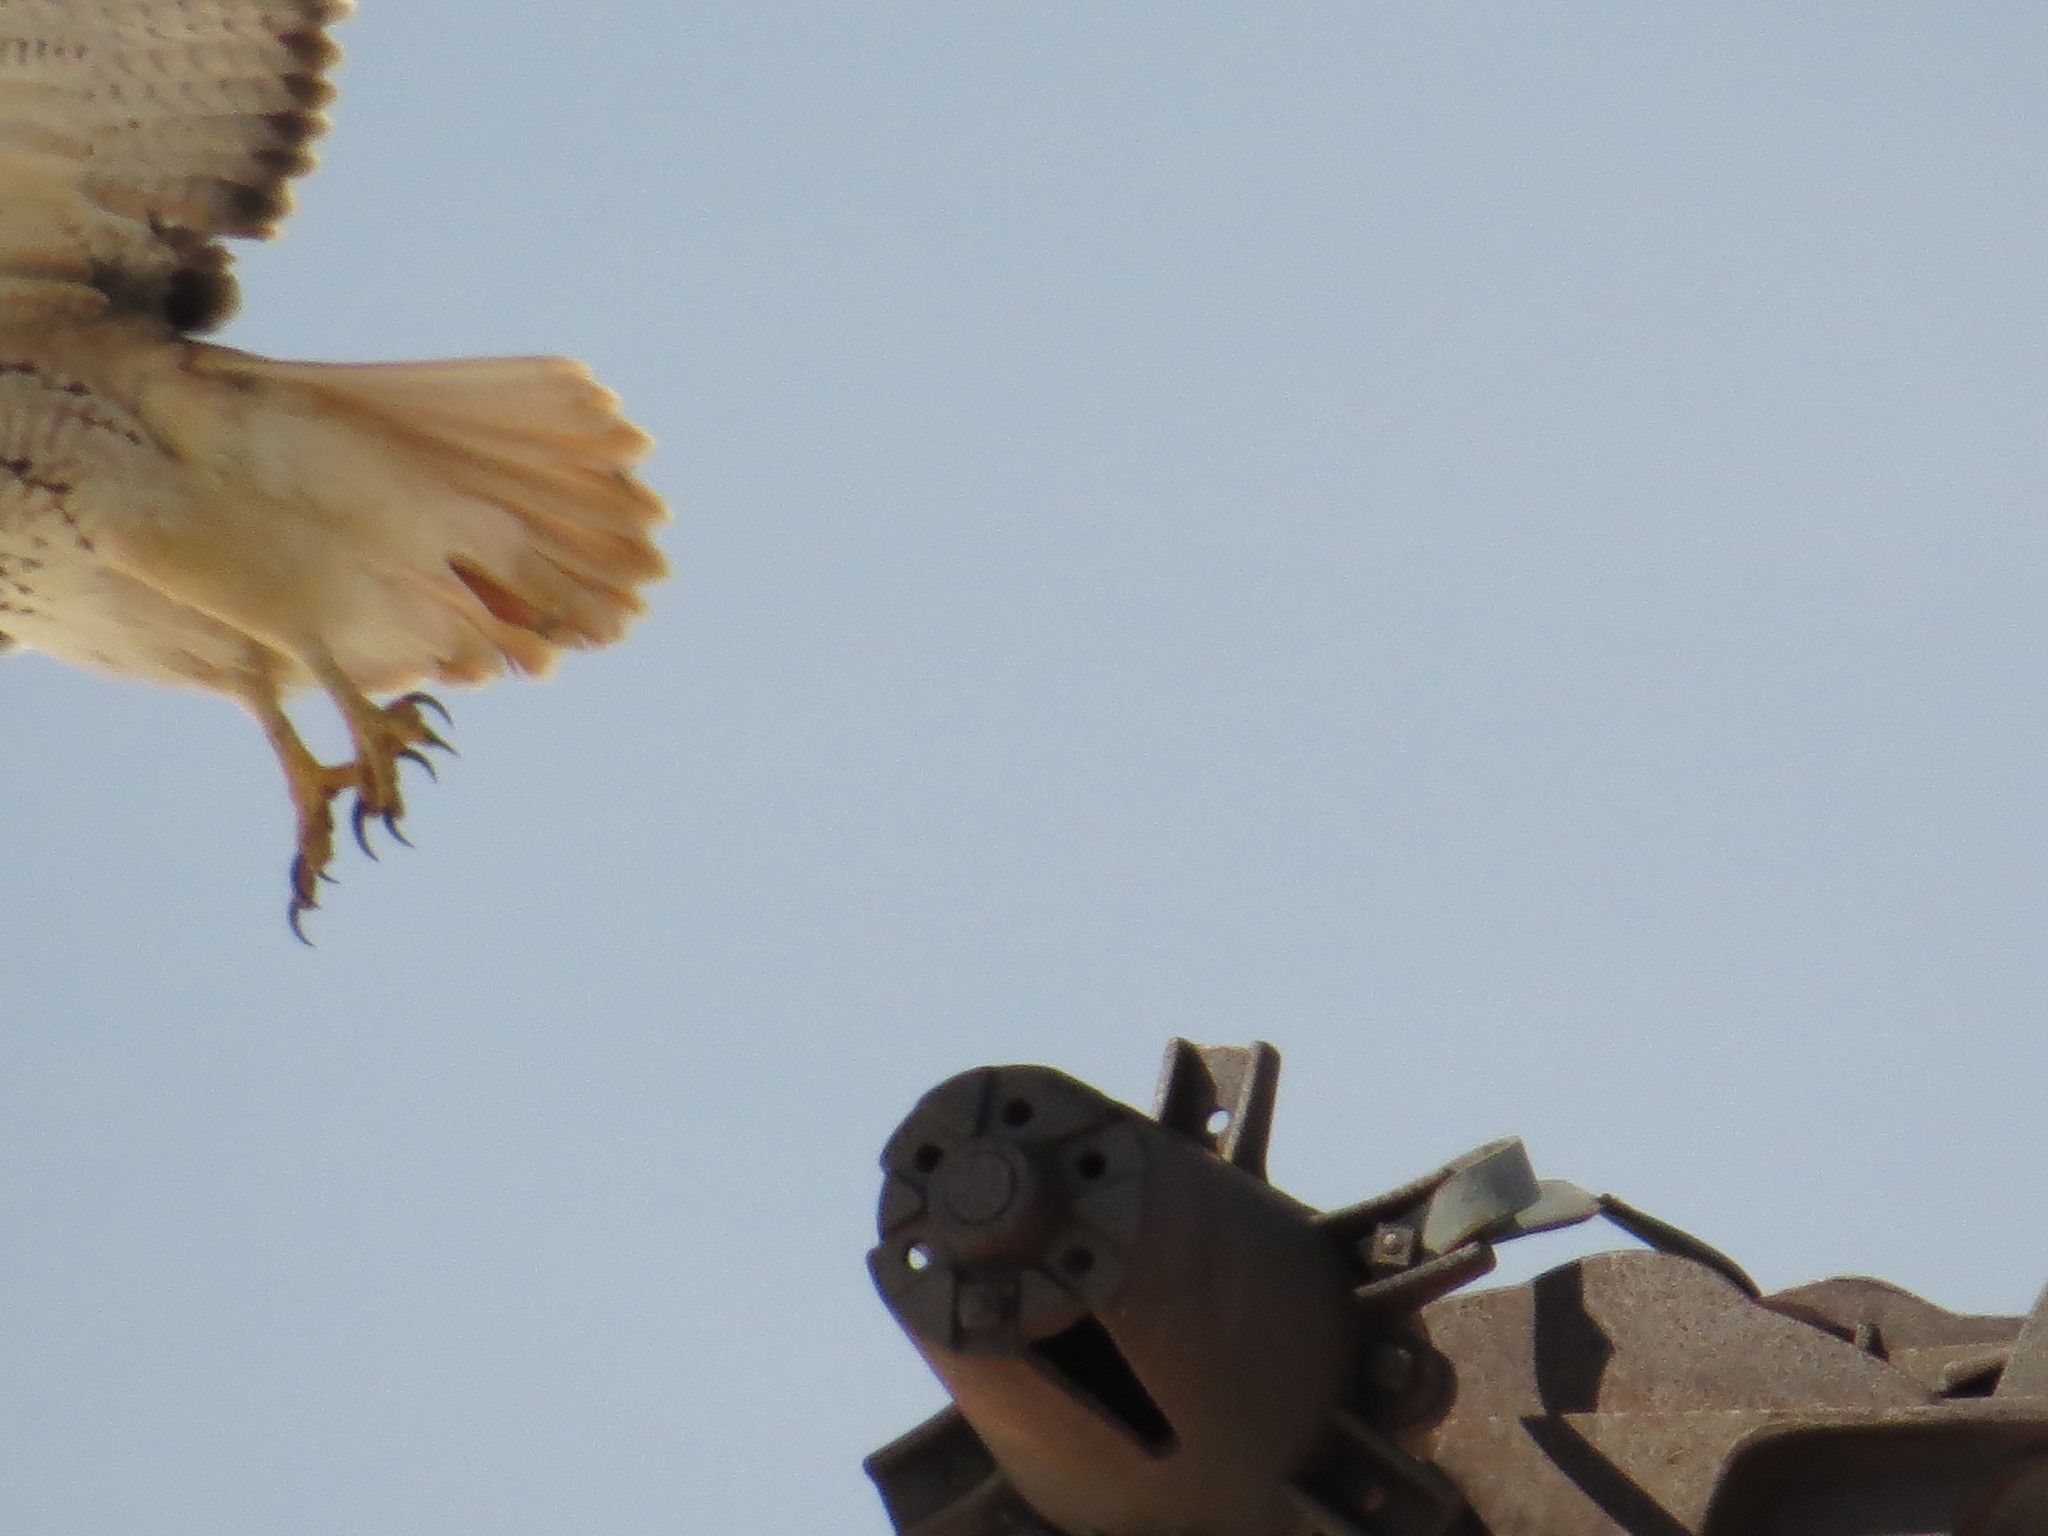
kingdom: Animalia
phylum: Chordata
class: Aves
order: Accipitriformes
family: Accipitridae
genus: Buteo
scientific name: Buteo jamaicensis
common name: Red-tailed hawk
